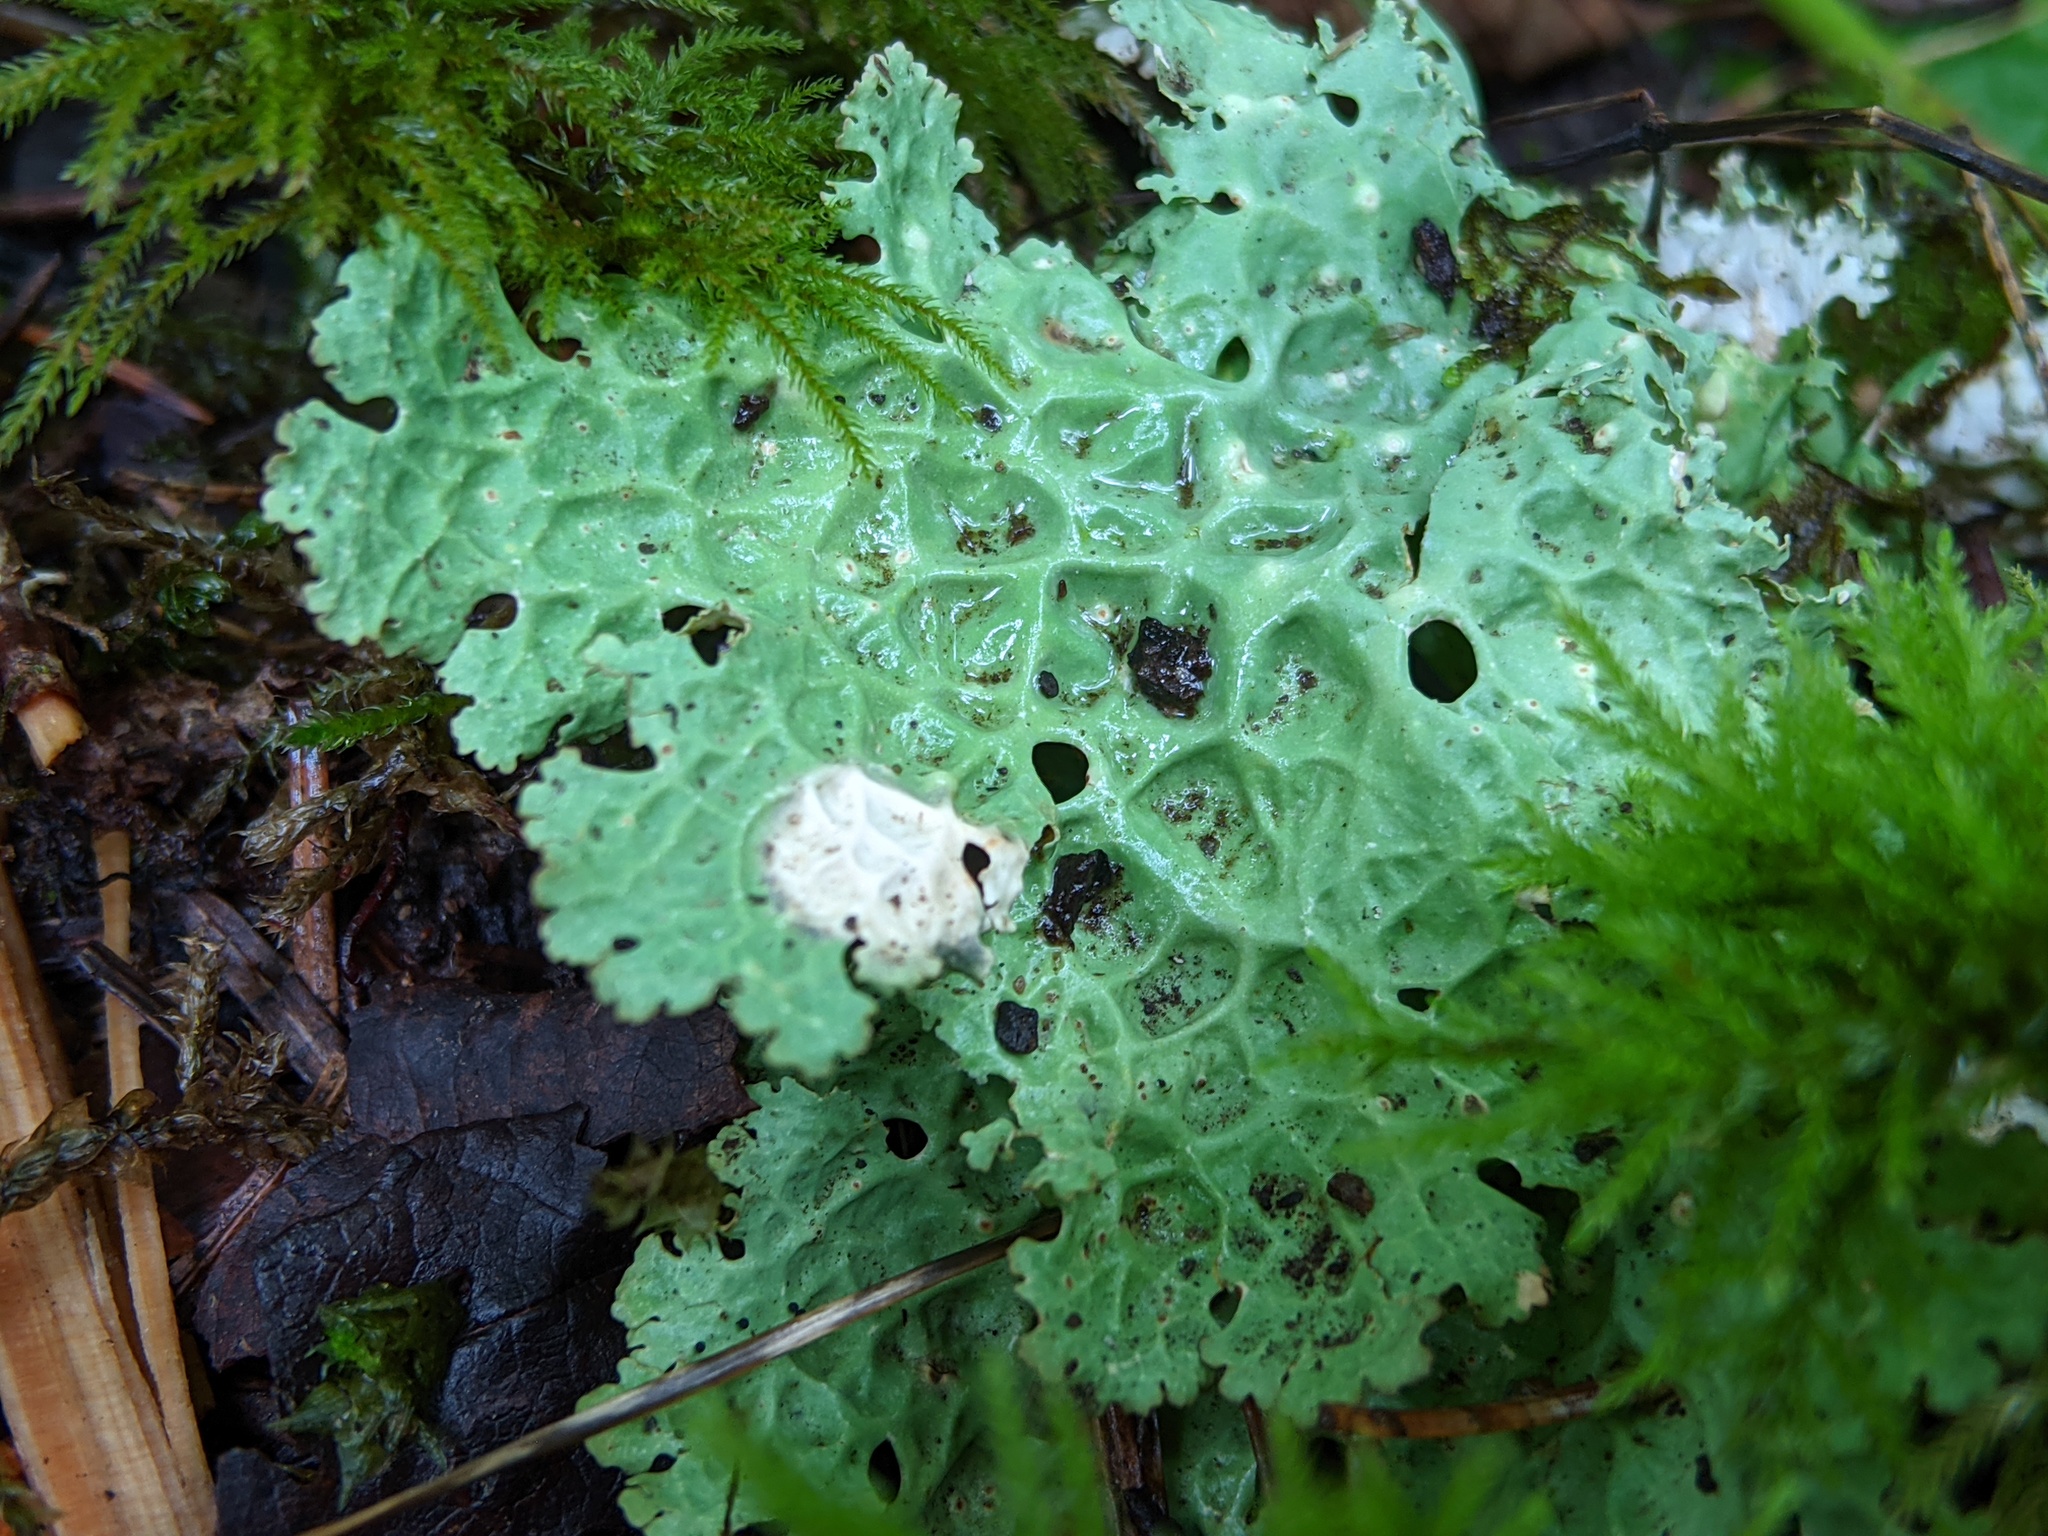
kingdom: Fungi
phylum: Ascomycota
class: Lecanoromycetes
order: Peltigerales
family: Lobariaceae
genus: Lobaria
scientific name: Lobaria oregana
